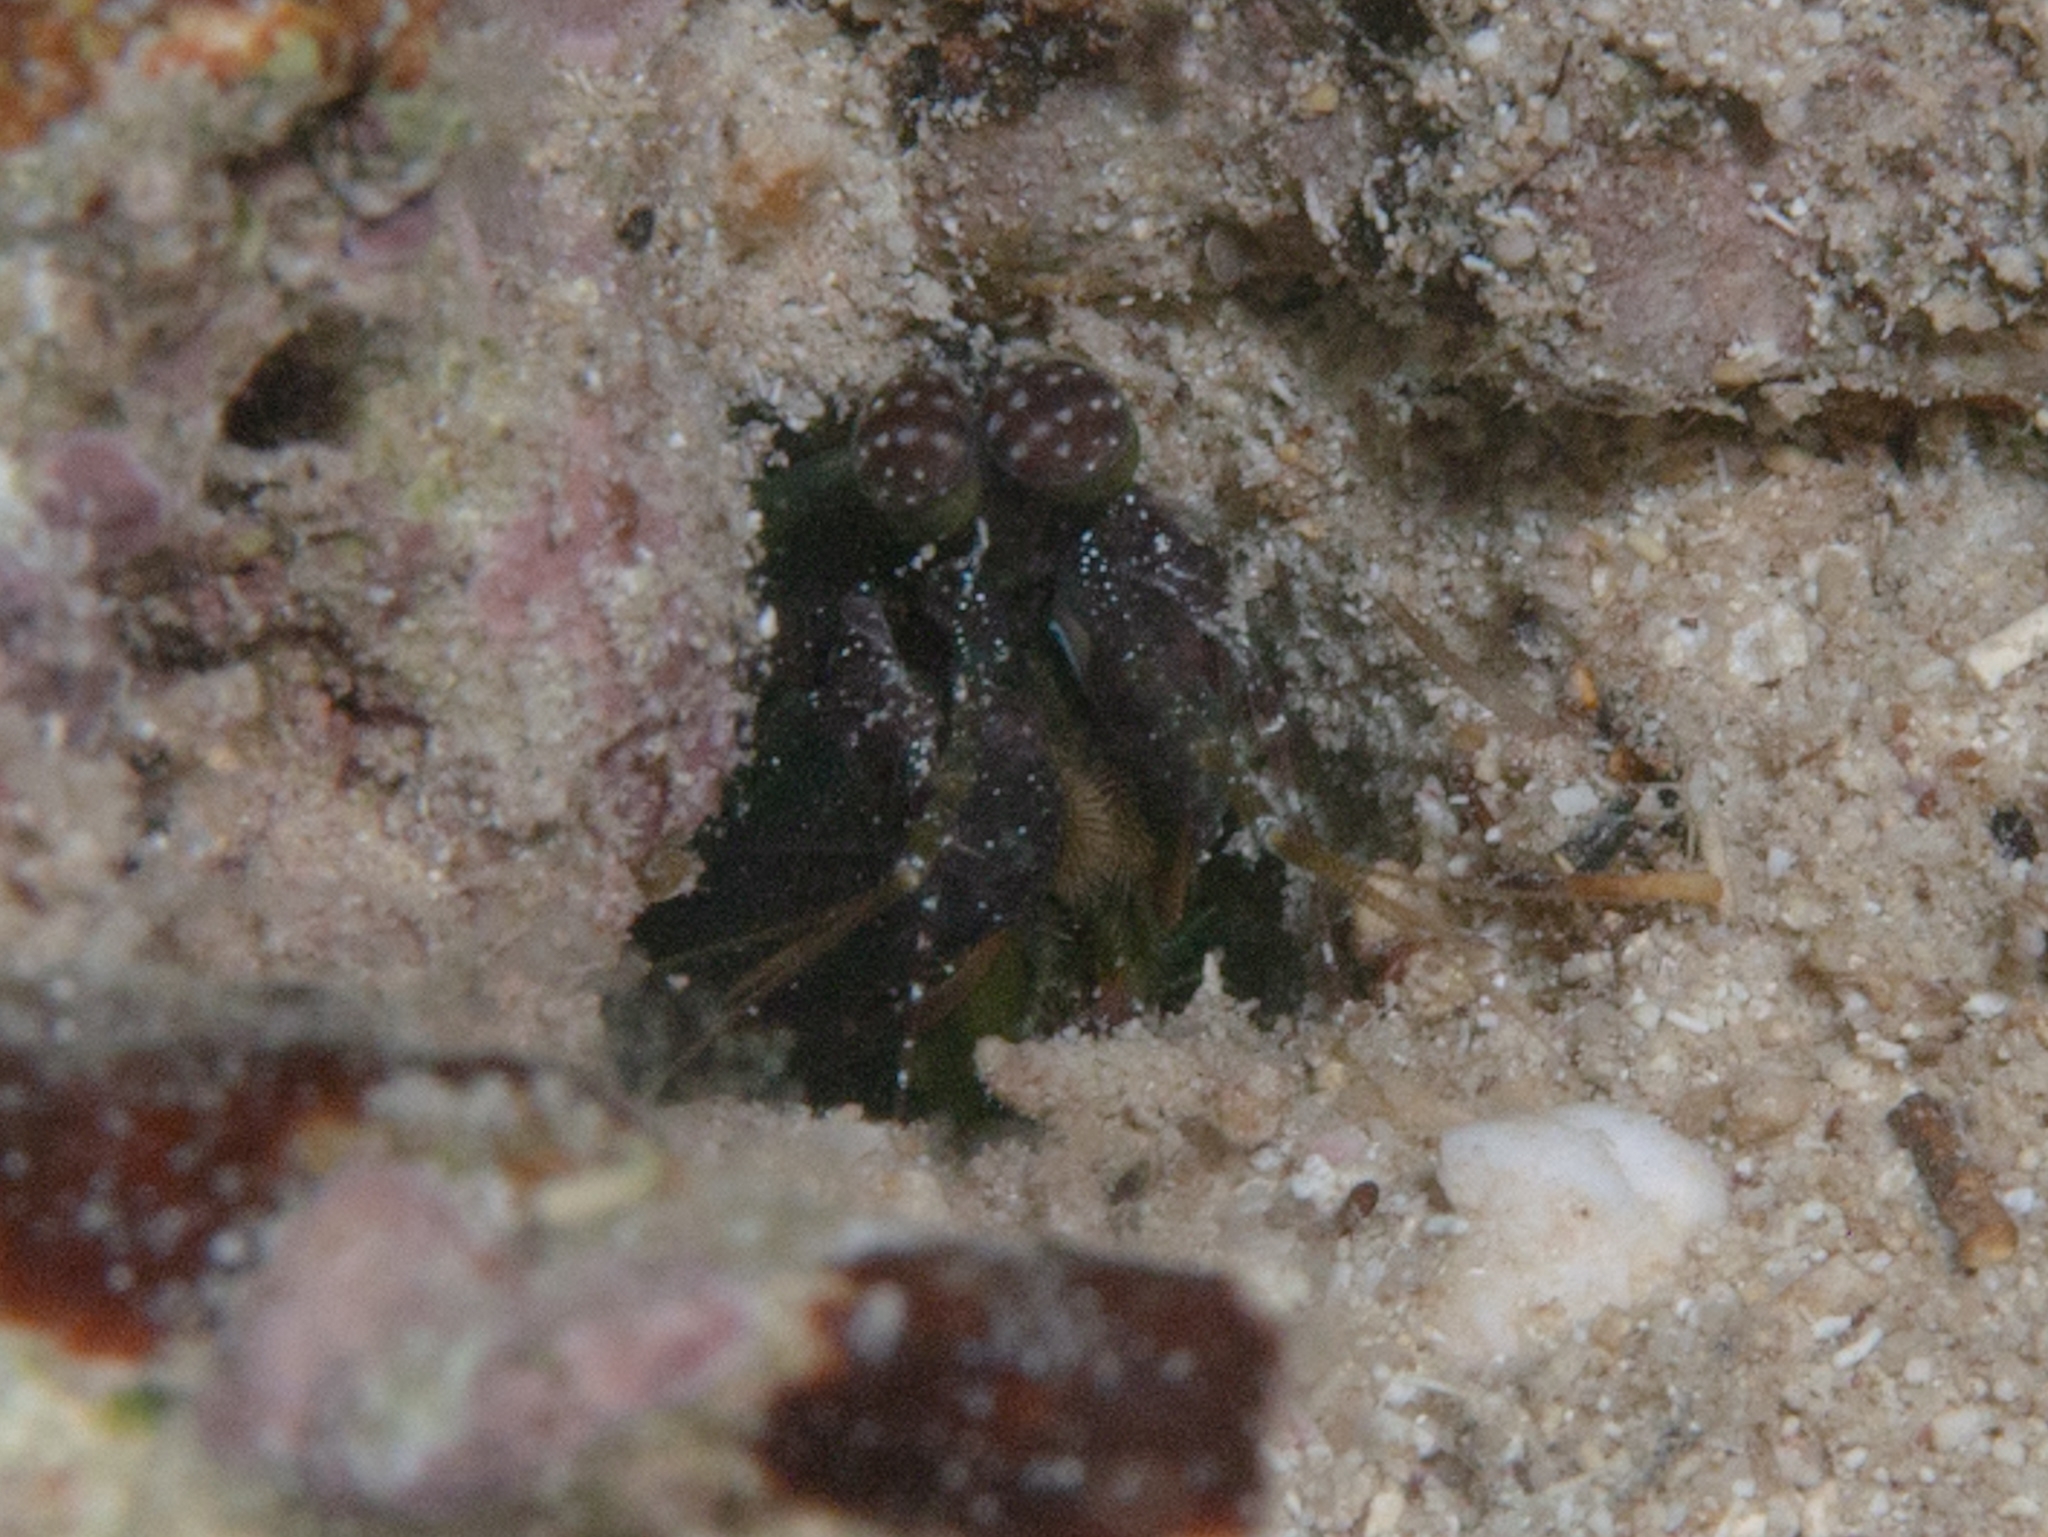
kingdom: Animalia
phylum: Arthropoda
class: Malacostraca
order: Stomatopoda
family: Pseudosquillidae
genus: Pseudosquilla
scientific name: Pseudosquilla ciliata
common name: Ciliated false squilla
